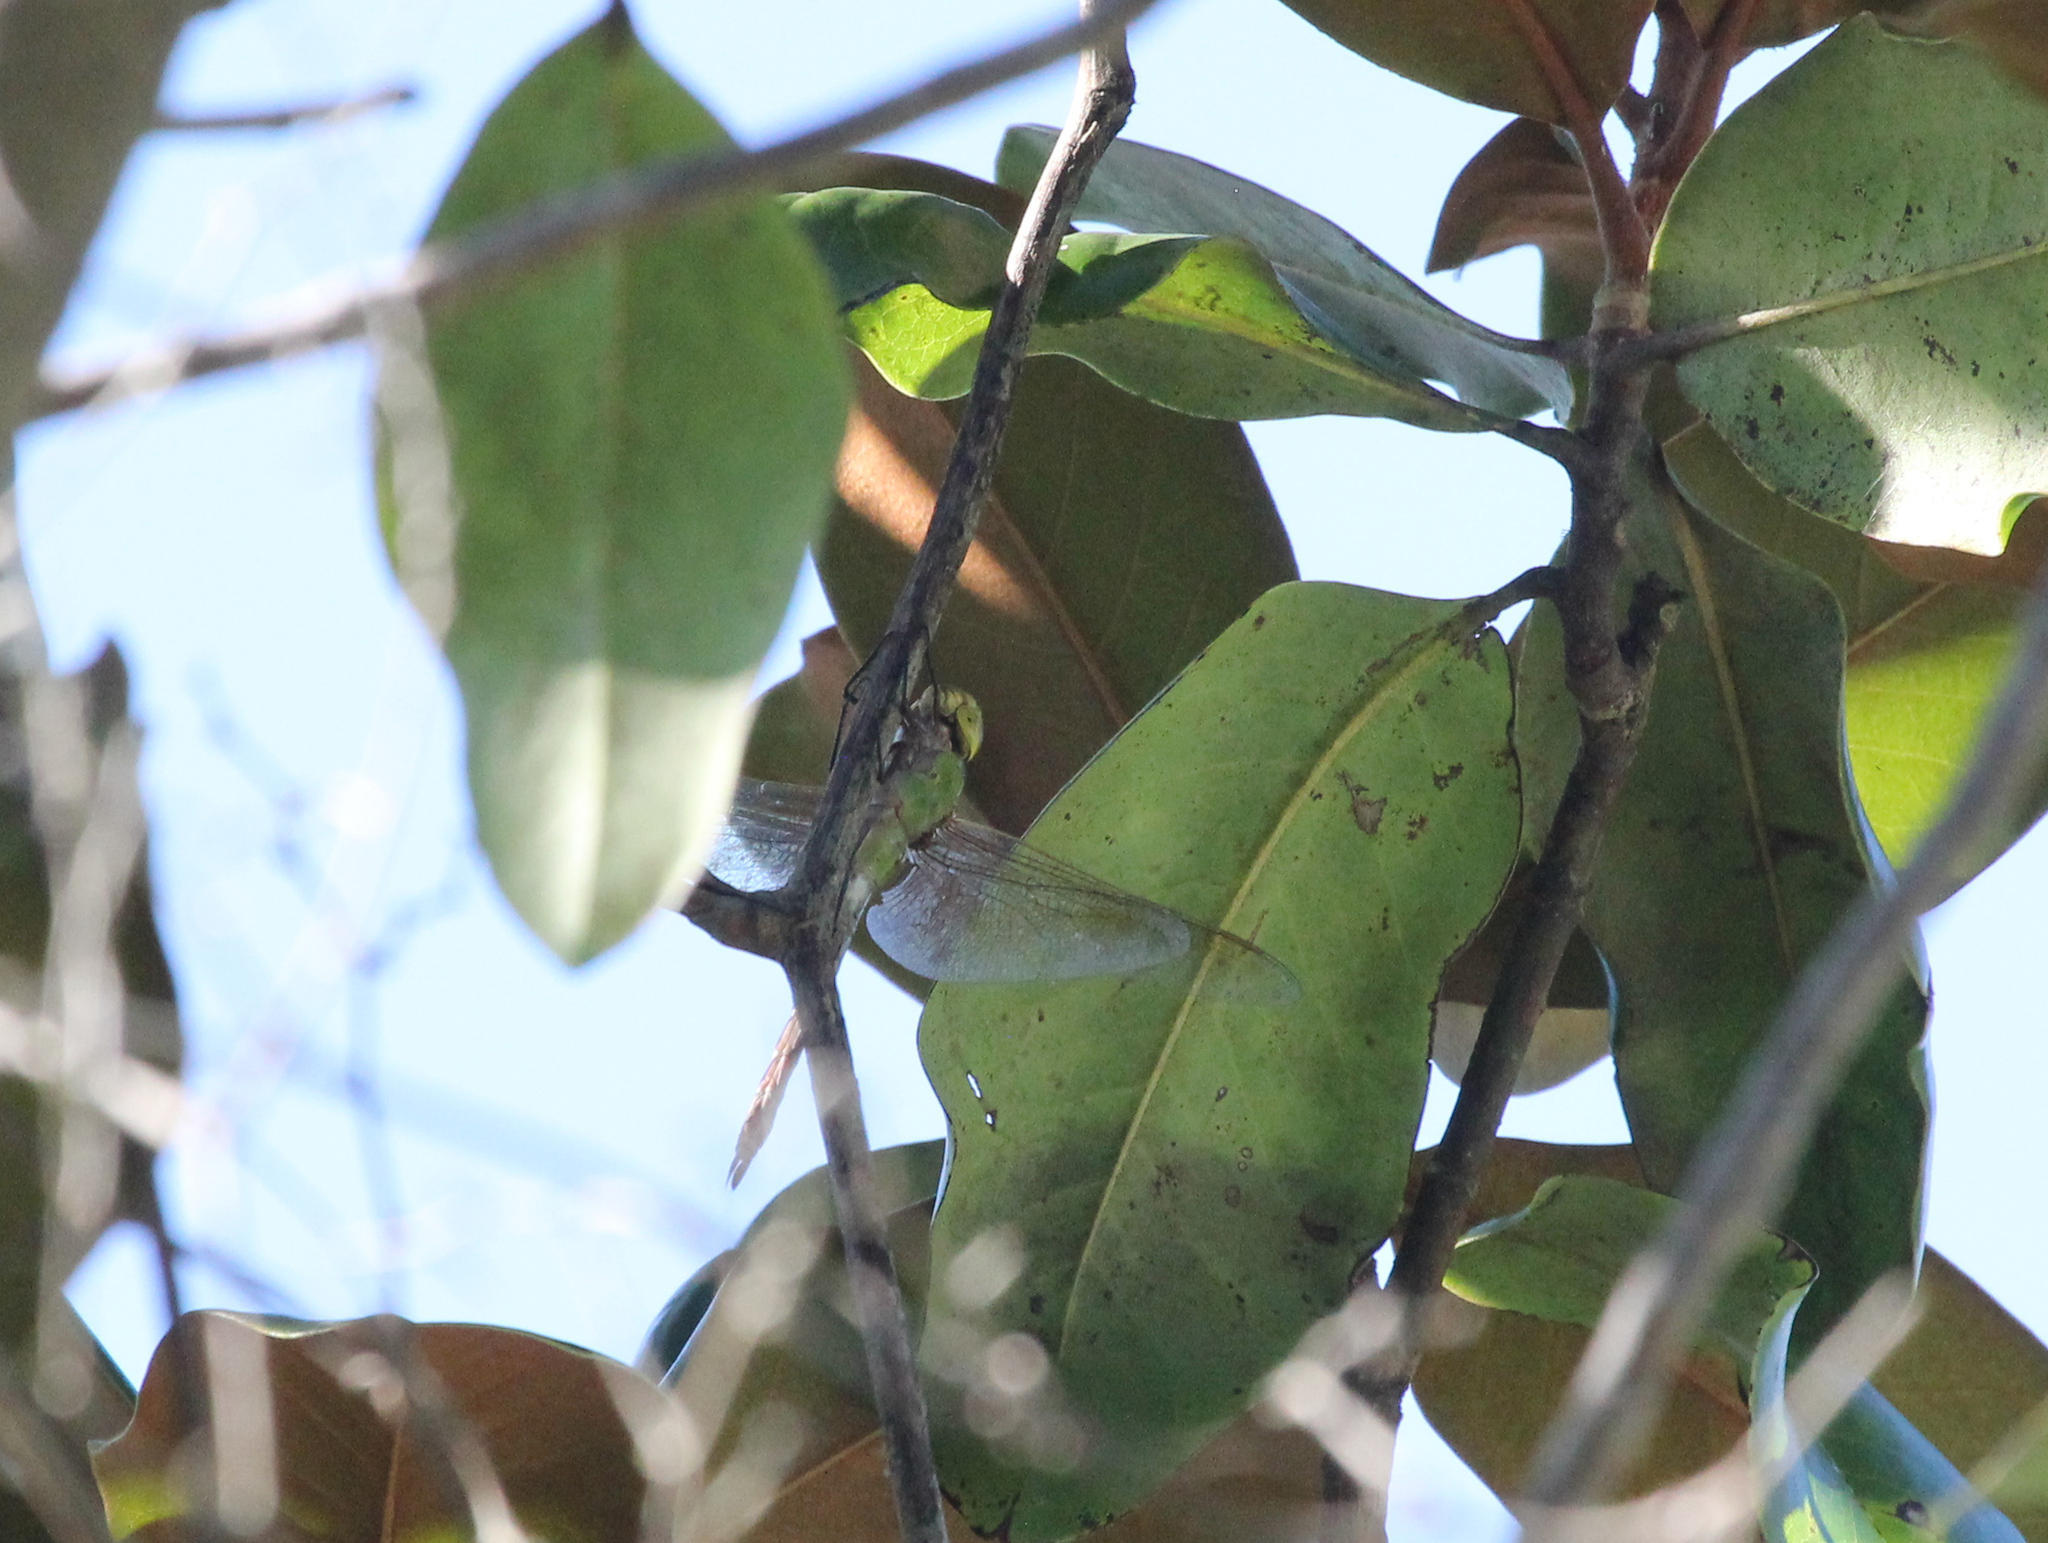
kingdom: Animalia
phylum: Arthropoda
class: Insecta
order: Odonata
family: Aeshnidae
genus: Anax
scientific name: Anax junius
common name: Common green darner
